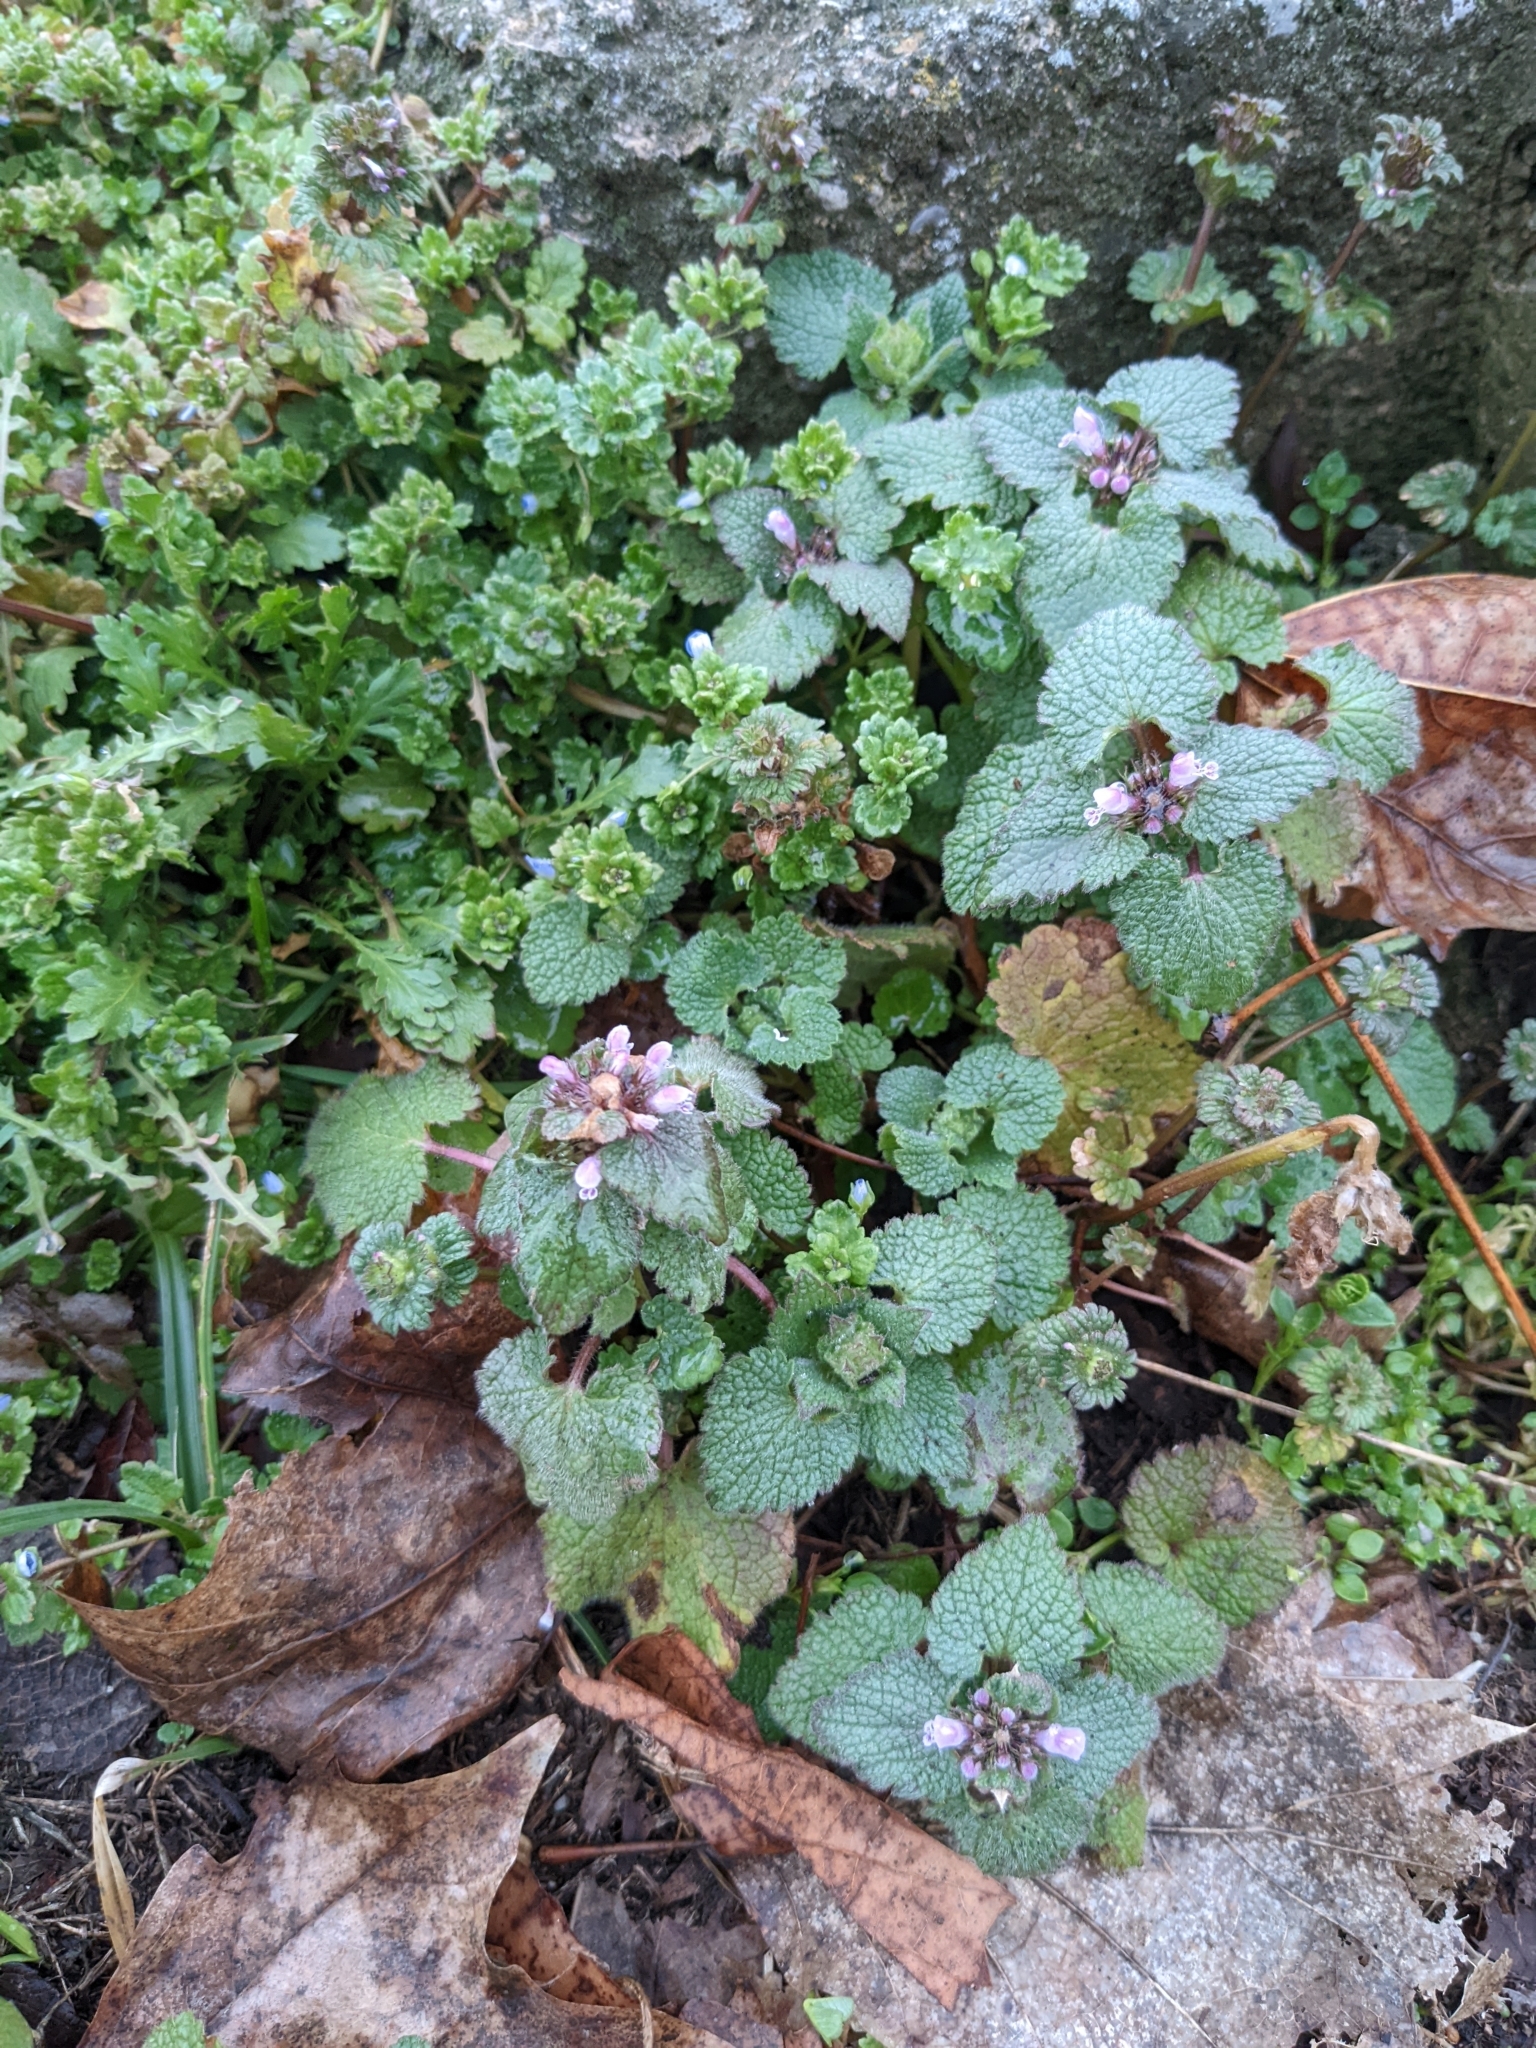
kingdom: Plantae
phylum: Tracheophyta
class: Magnoliopsida
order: Lamiales
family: Lamiaceae
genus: Lamium
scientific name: Lamium purpureum
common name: Red dead-nettle
